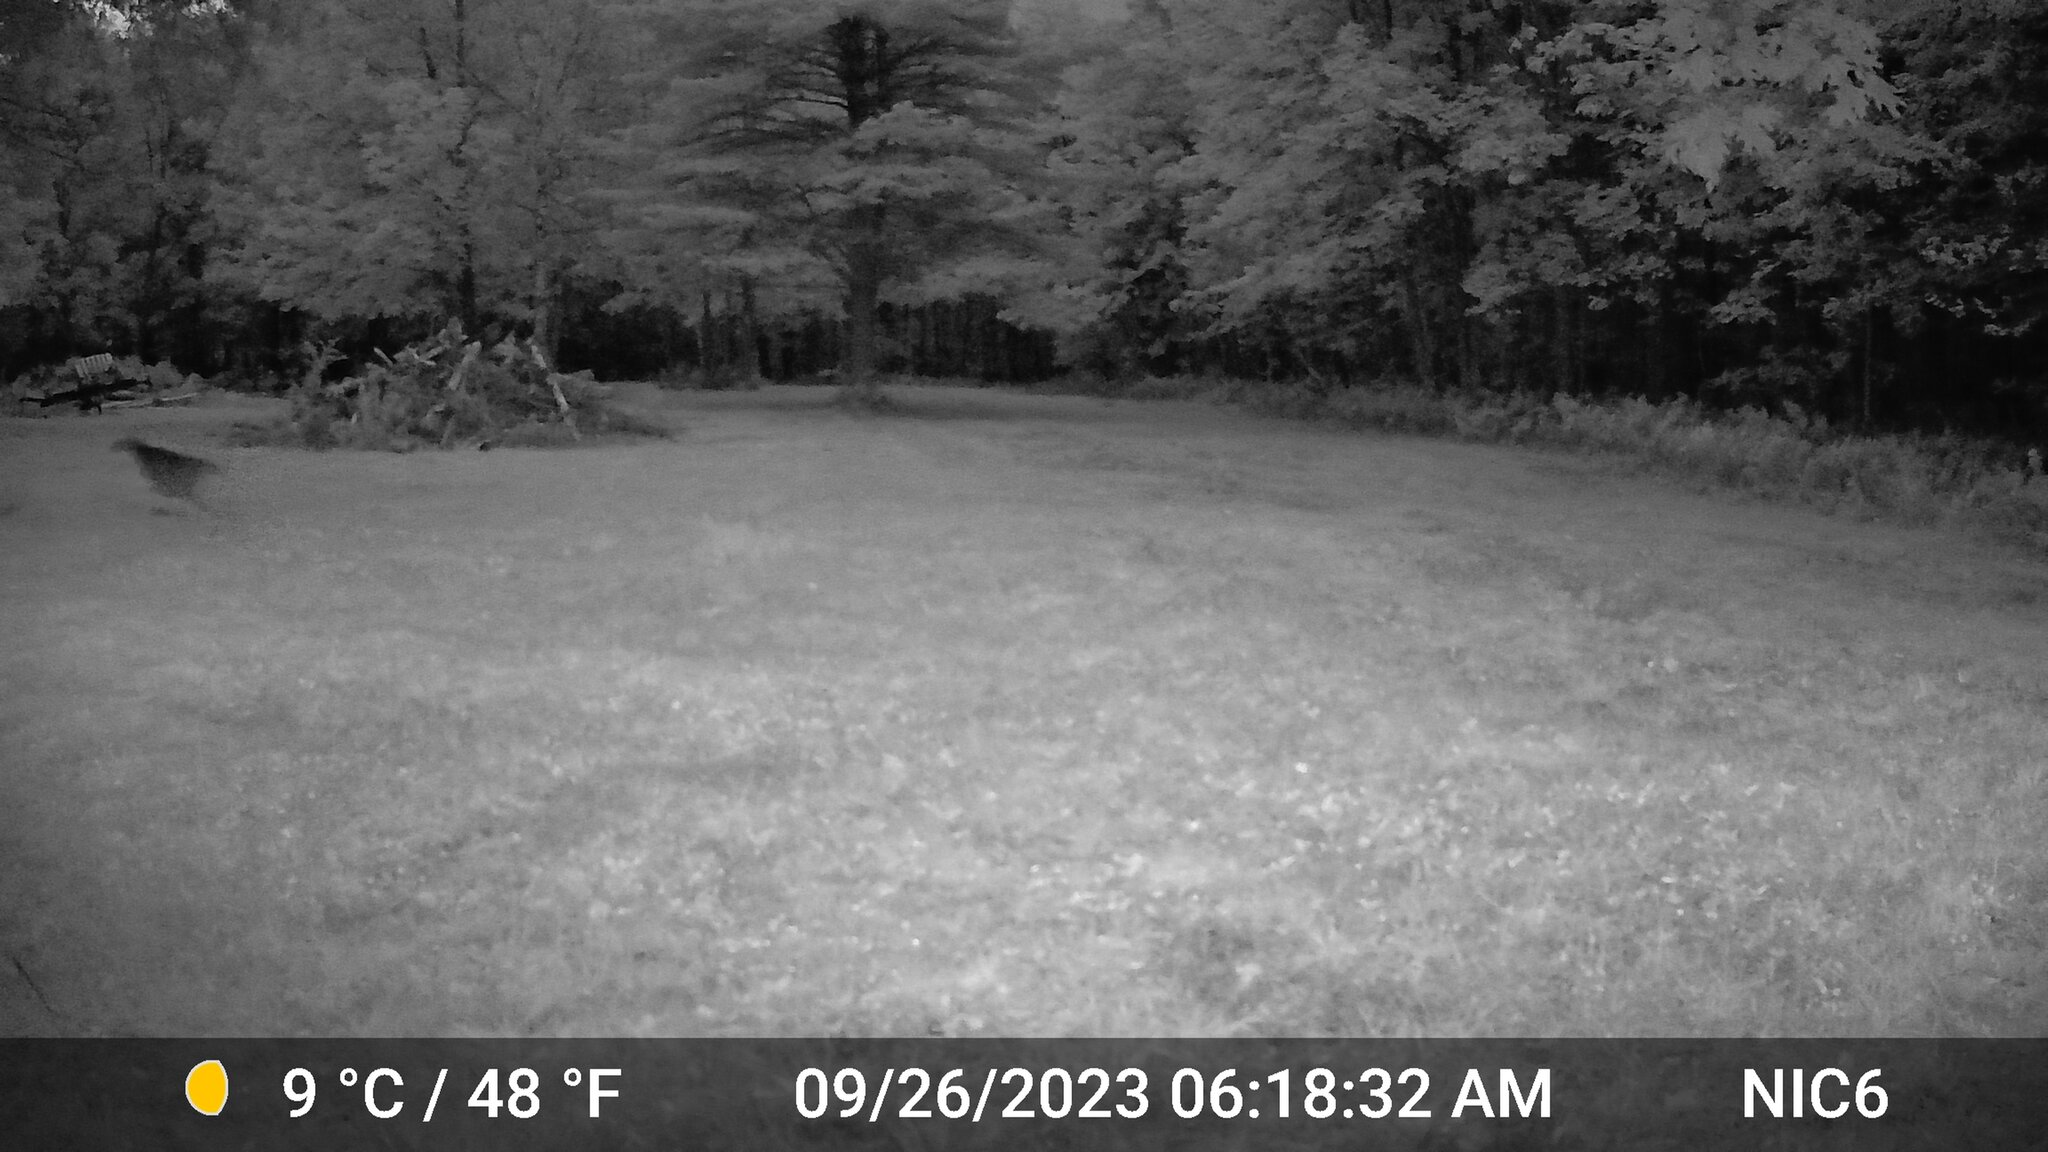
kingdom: Animalia
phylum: Chordata
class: Mammalia
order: Artiodactyla
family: Cervidae
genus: Odocoileus
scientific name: Odocoileus virginianus
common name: White-tailed deer
